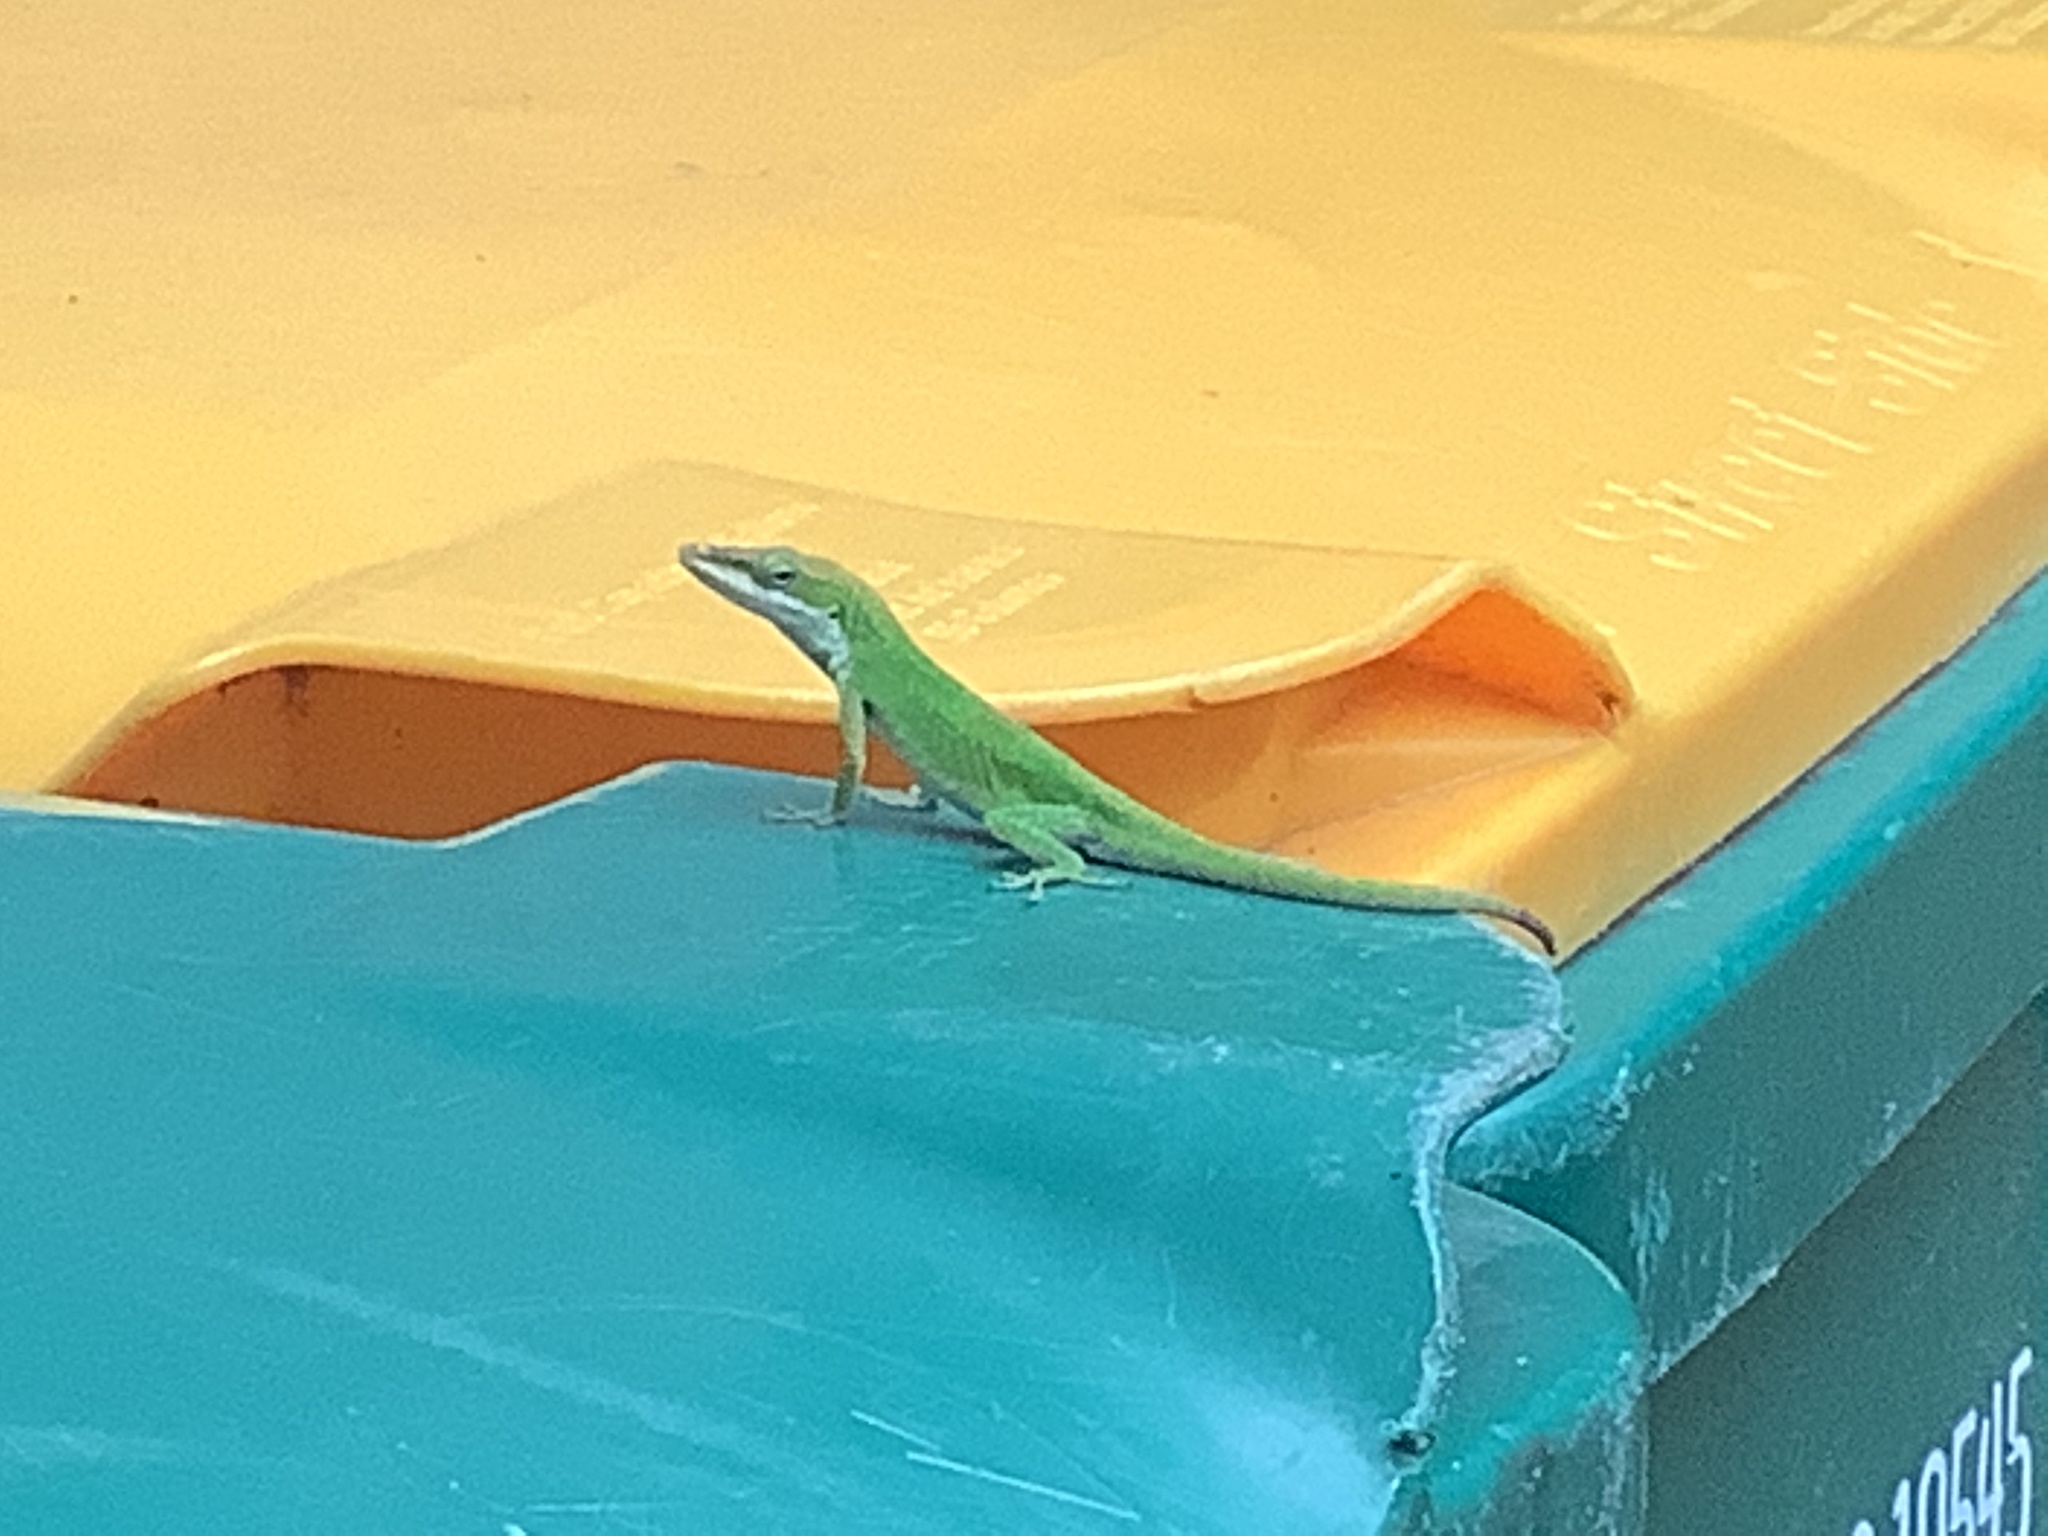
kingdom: Animalia
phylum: Chordata
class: Squamata
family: Dactyloidae
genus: Anolis
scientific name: Anolis carolinensis
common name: Green anole
